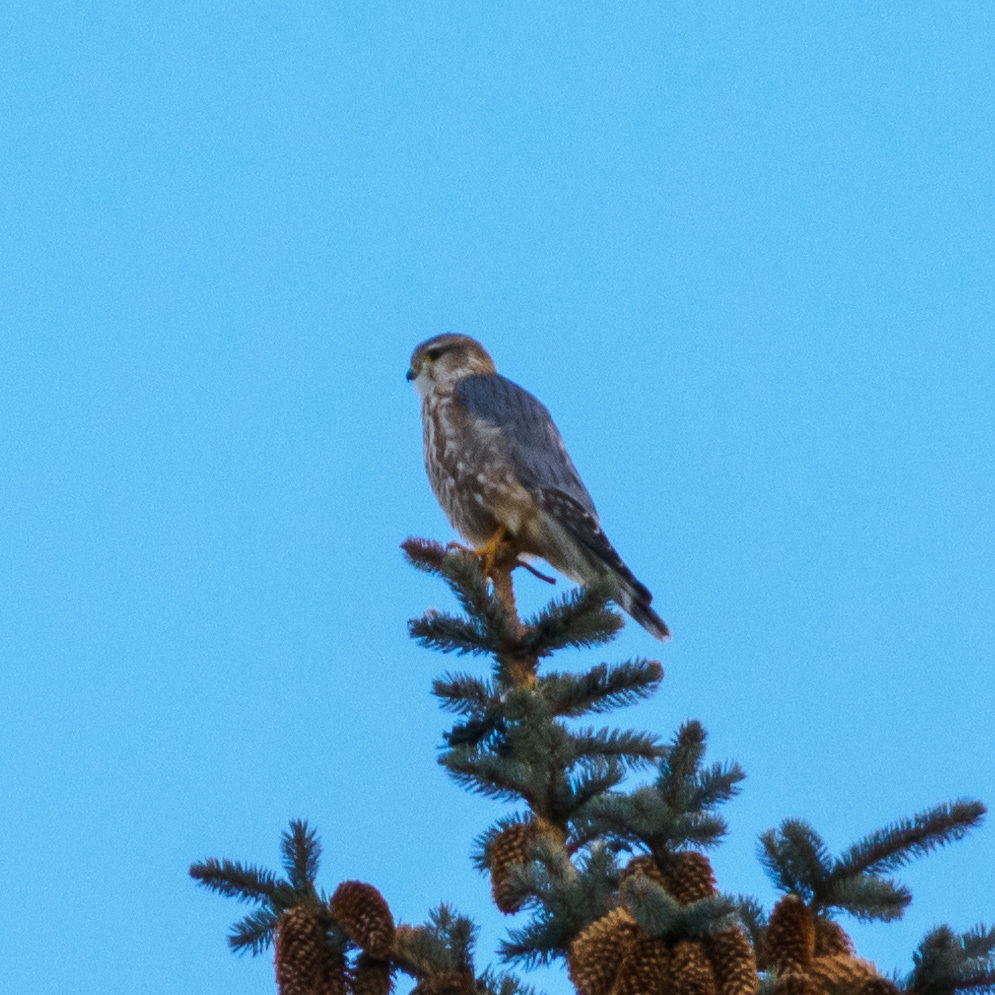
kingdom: Animalia
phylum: Chordata
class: Aves
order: Falconiformes
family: Falconidae
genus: Falco
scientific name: Falco columbarius
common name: Merlin
